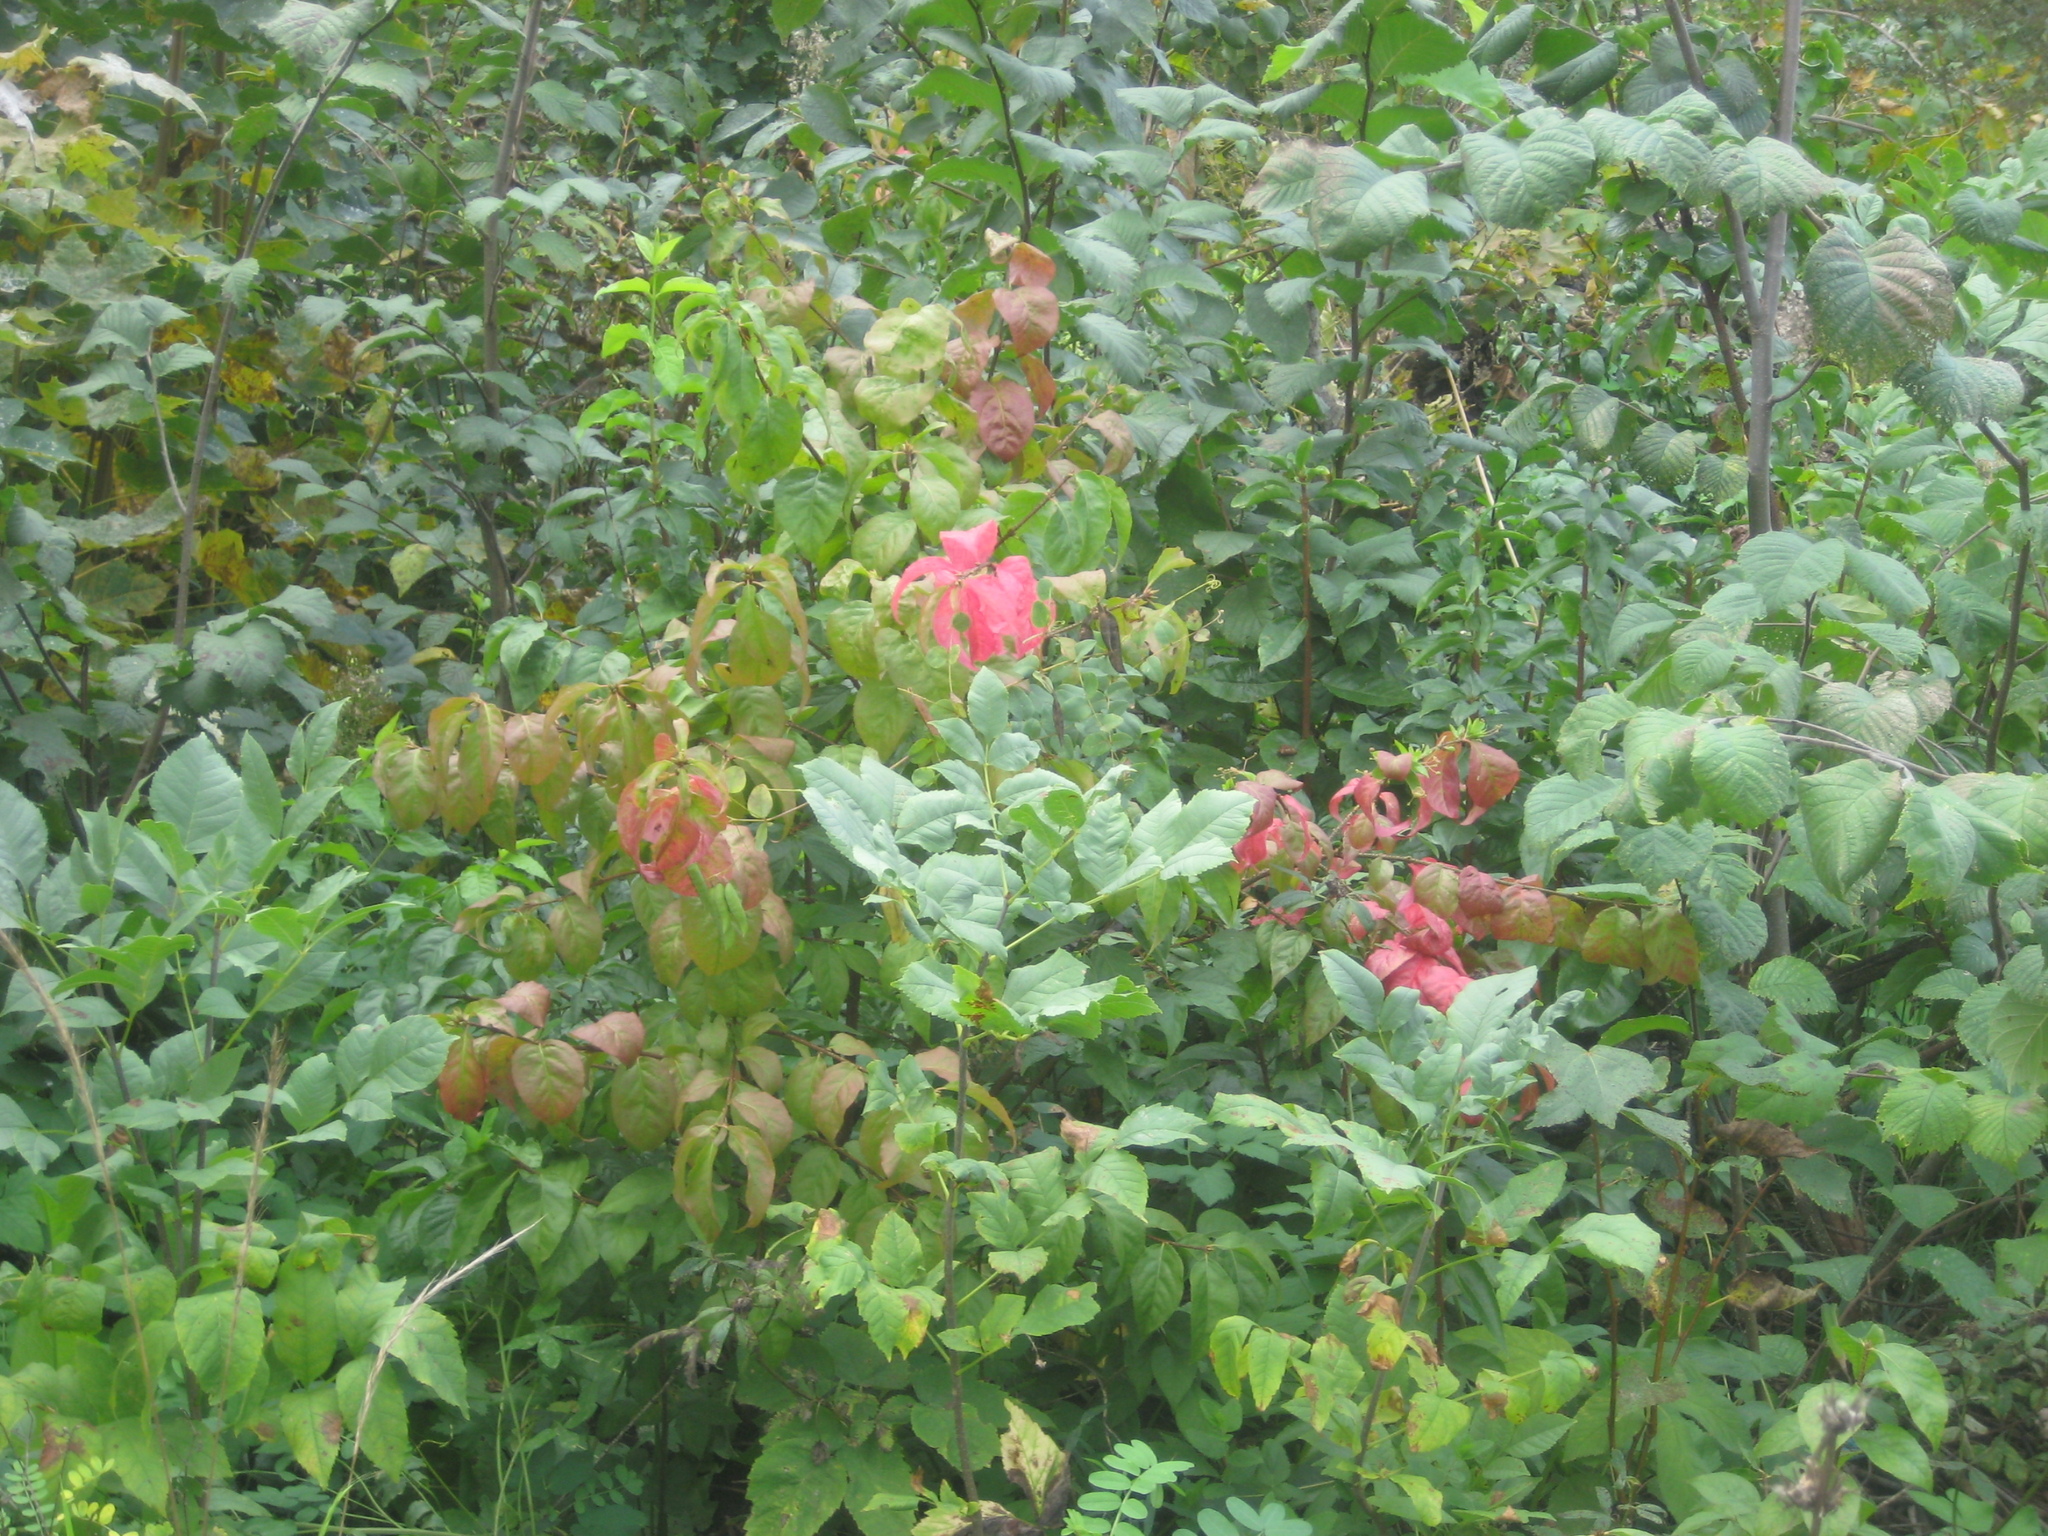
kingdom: Plantae
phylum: Tracheophyta
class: Magnoliopsida
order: Celastrales
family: Celastraceae
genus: Euonymus
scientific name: Euonymus verrucosus
